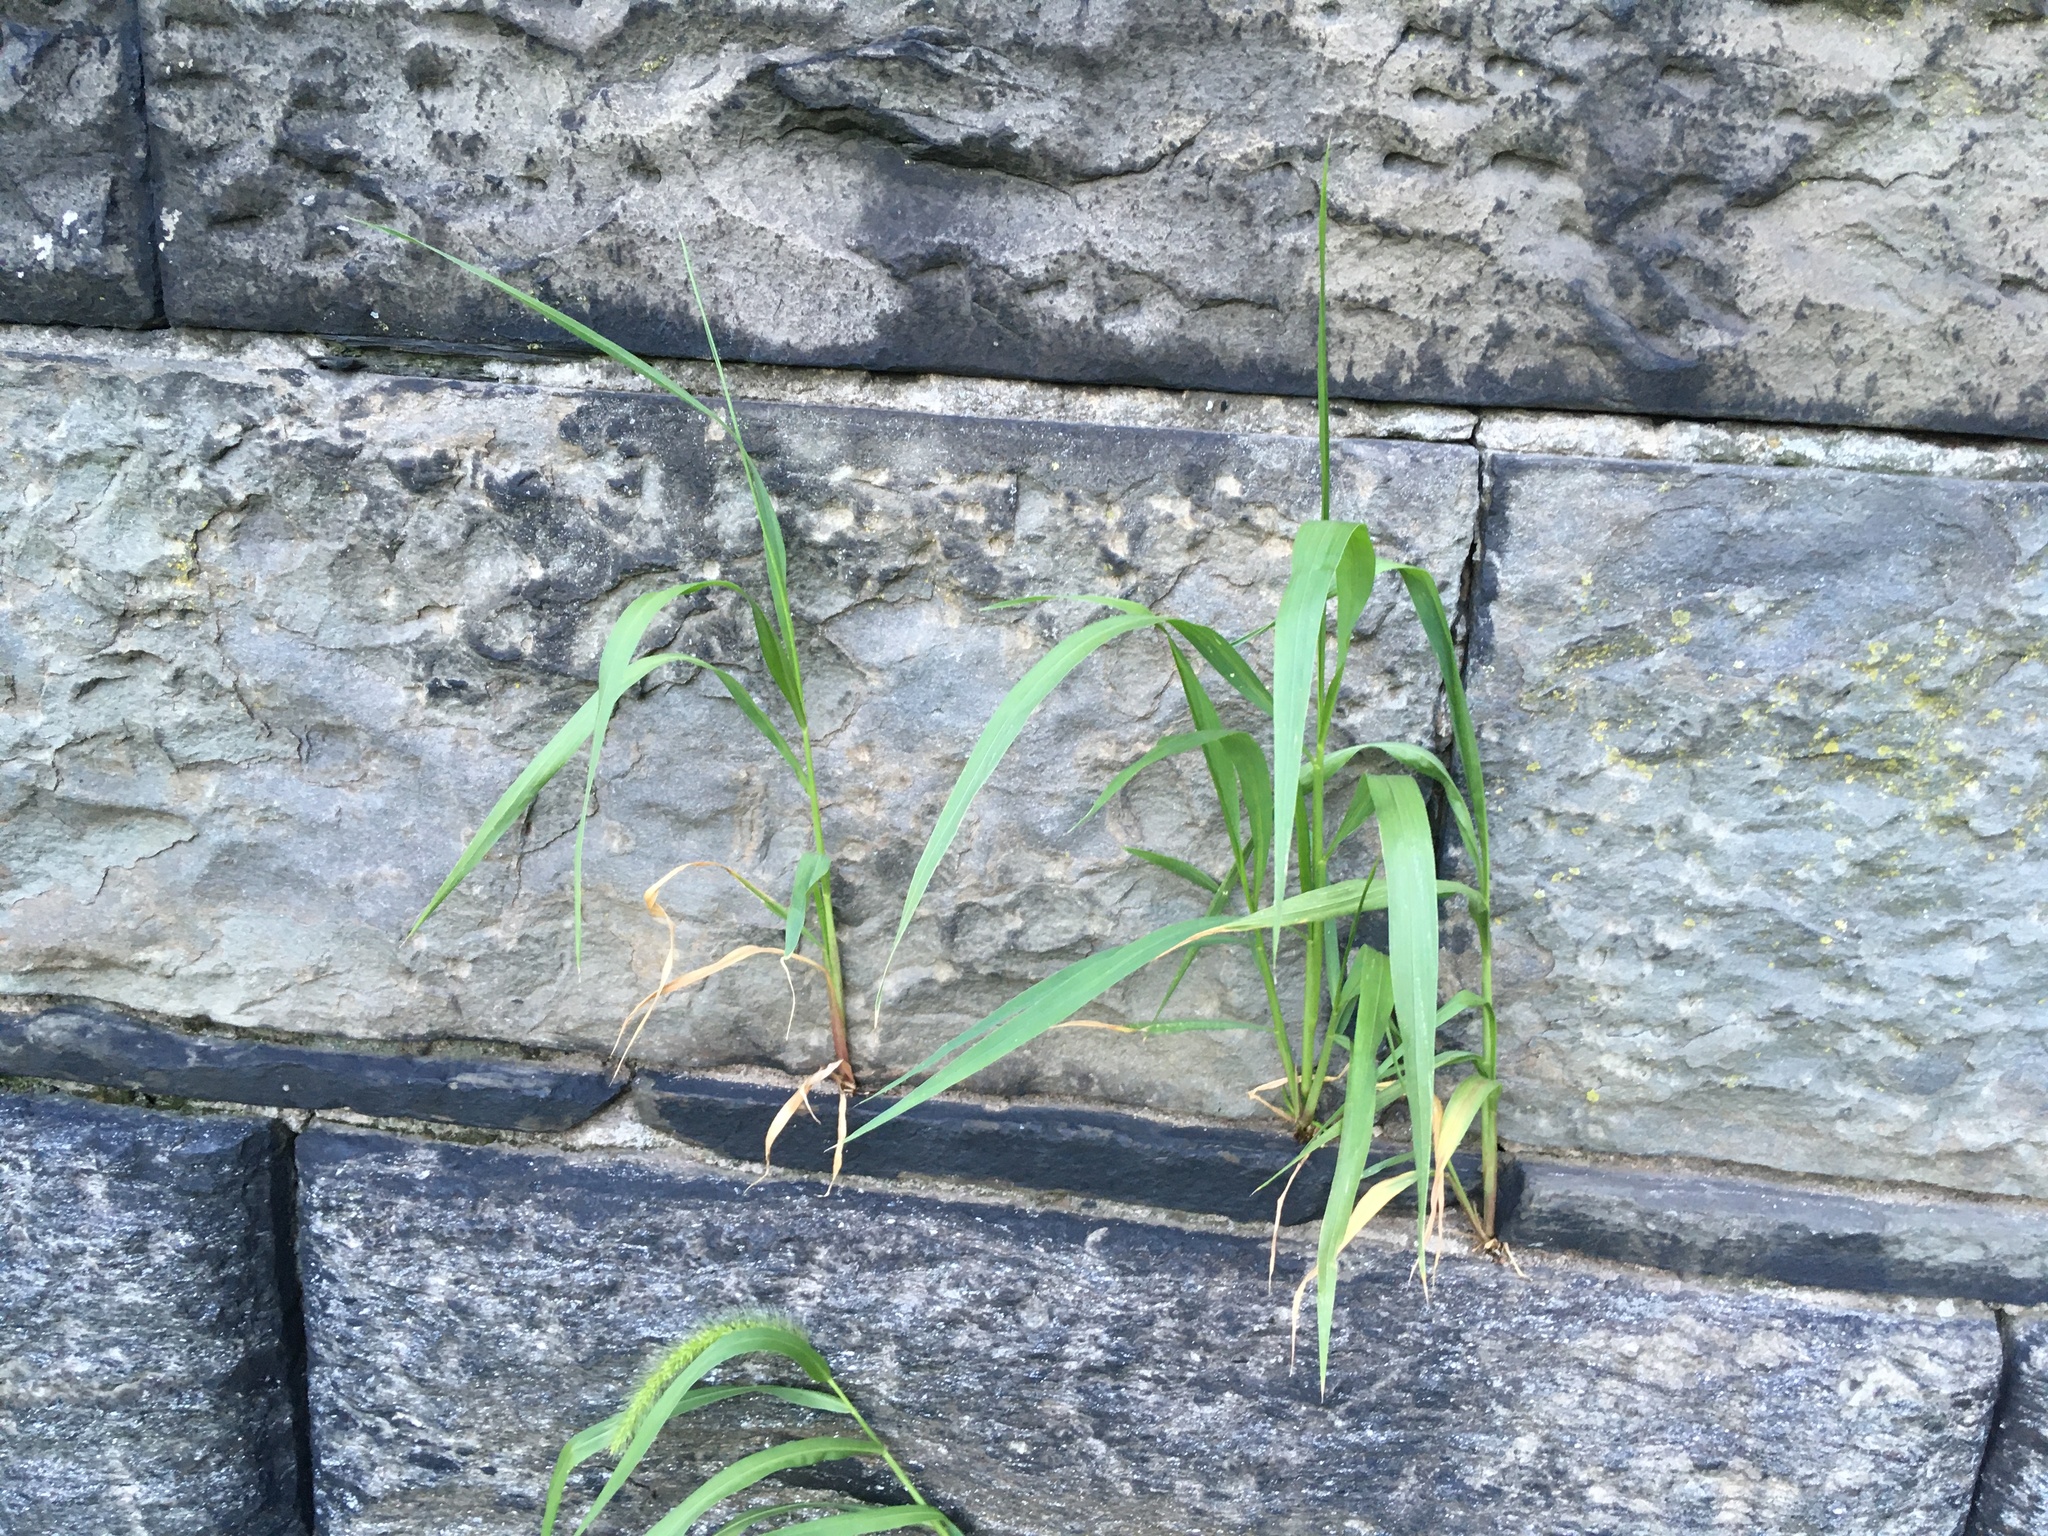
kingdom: Plantae
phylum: Tracheophyta
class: Liliopsida
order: Poales
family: Poaceae
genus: Setaria
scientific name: Setaria viridis
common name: Green bristlegrass
